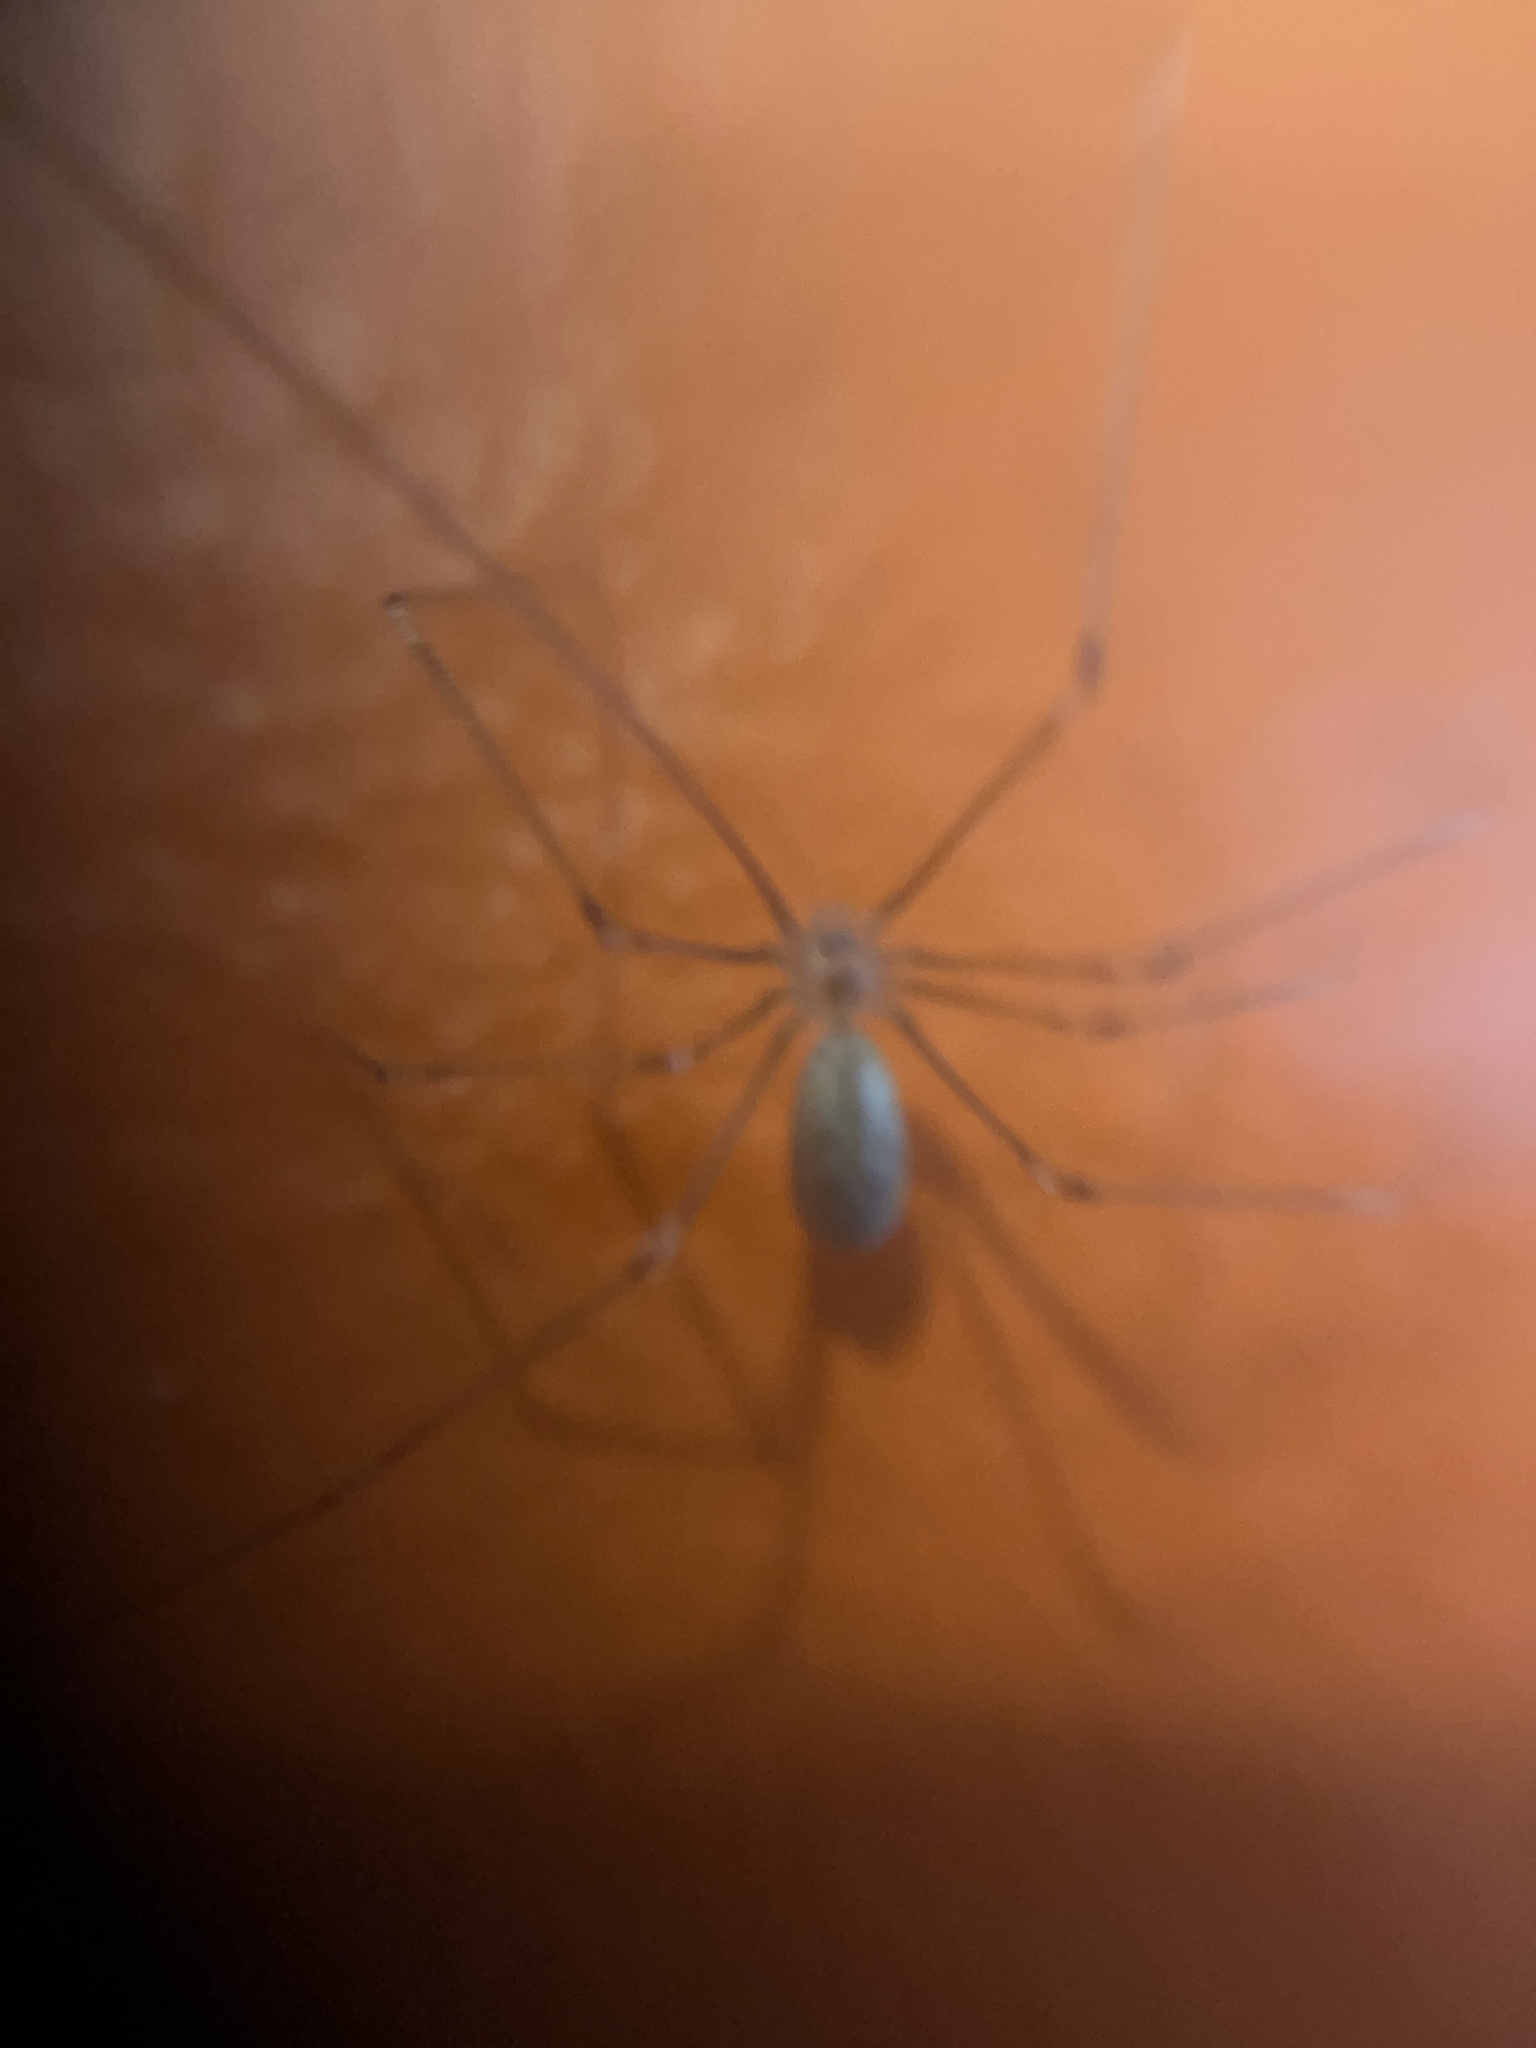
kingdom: Animalia
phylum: Arthropoda
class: Arachnida
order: Araneae
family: Pholcidae
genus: Pholcus
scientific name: Pholcus phalangioides
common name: Longbodied cellar spider
